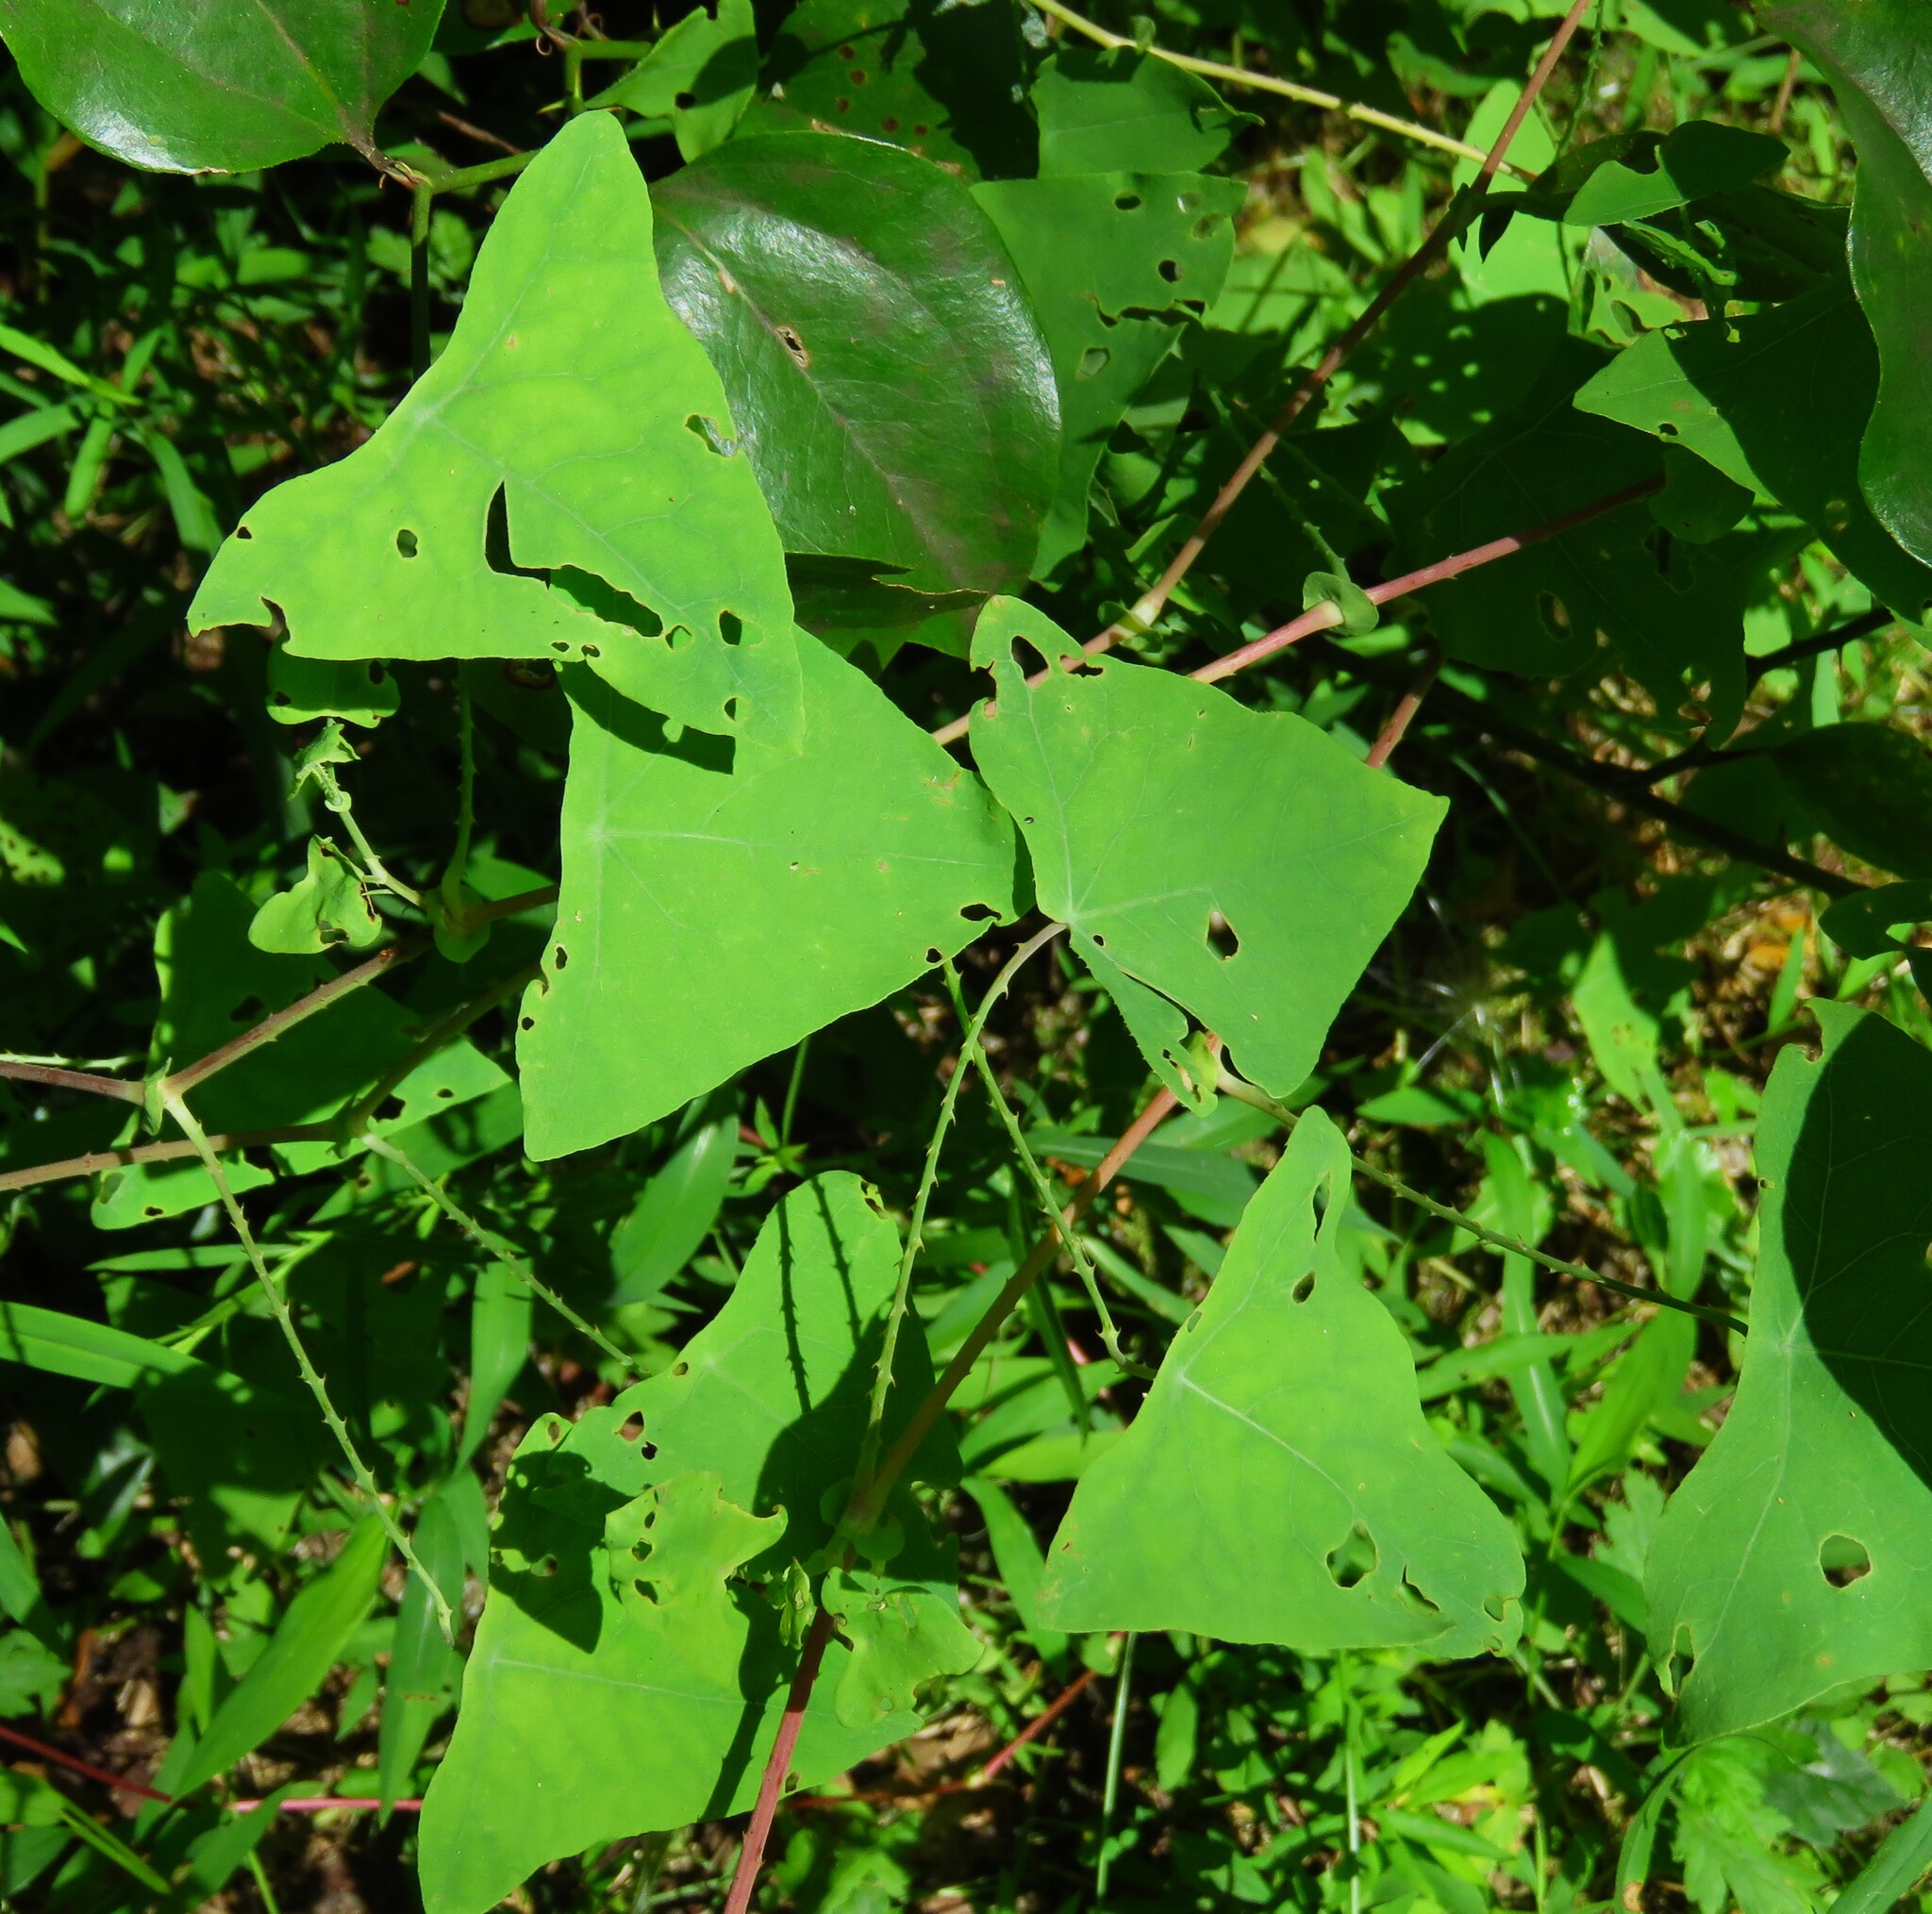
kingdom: Plantae
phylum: Tracheophyta
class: Magnoliopsida
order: Caryophyllales
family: Polygonaceae
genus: Persicaria
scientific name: Persicaria perfoliata
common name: Asiatic tearthumb
